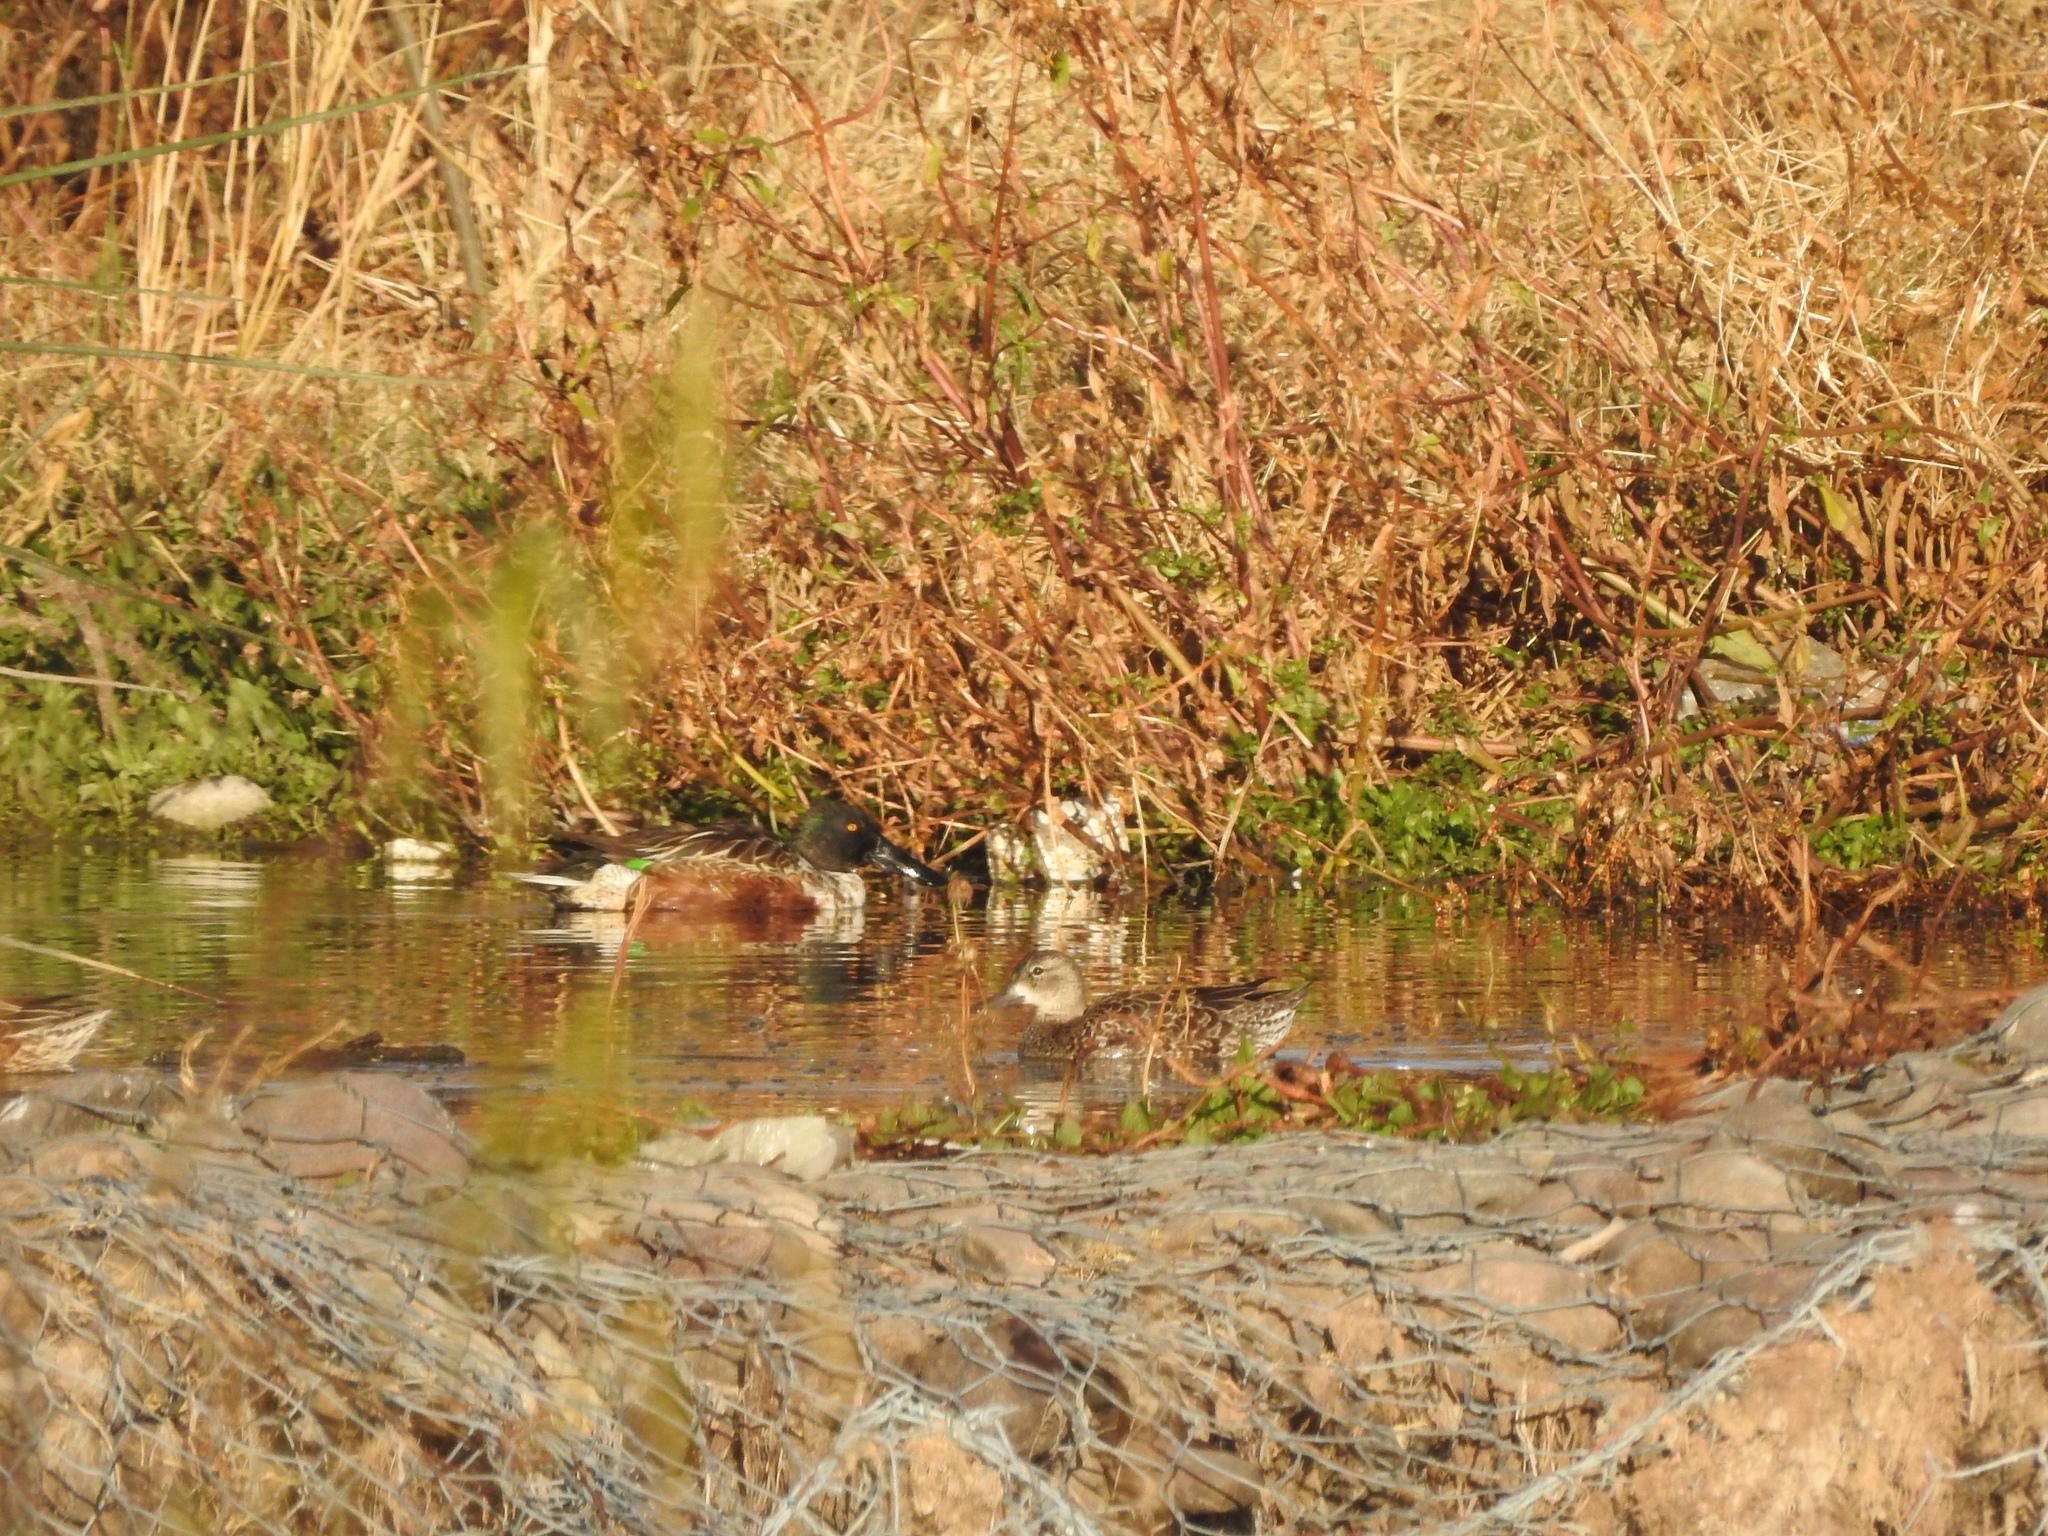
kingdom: Animalia
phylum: Chordata
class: Aves
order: Anseriformes
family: Anatidae
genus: Spatula
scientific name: Spatula clypeata
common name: Northern shoveler
